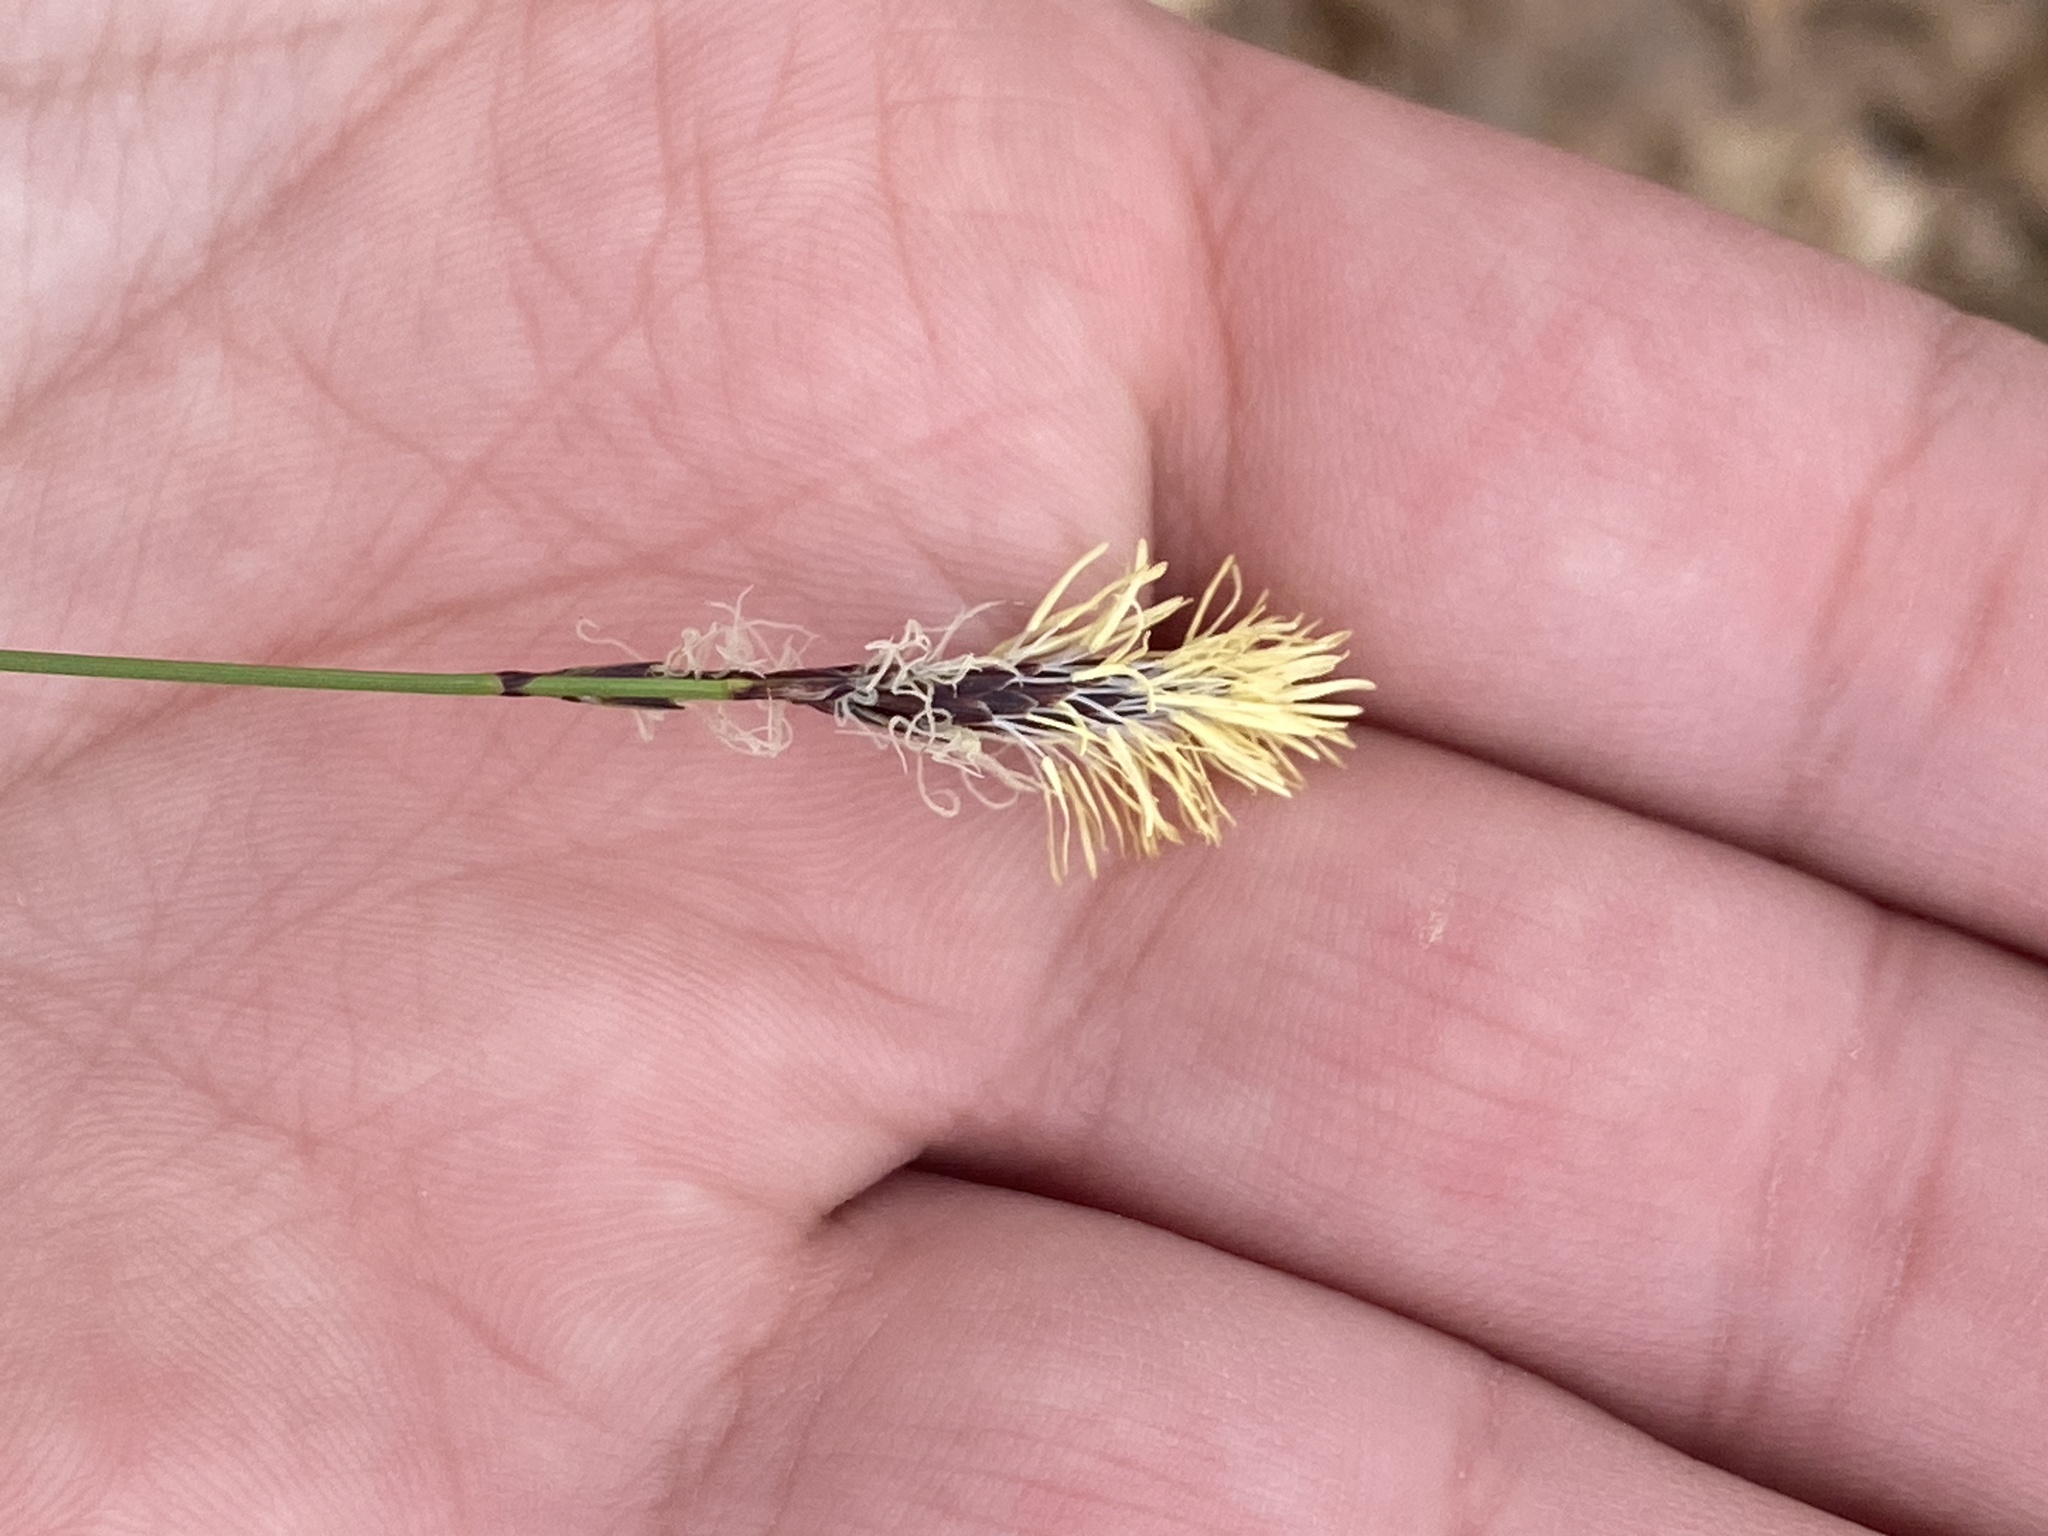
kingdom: Plantae
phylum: Tracheophyta
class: Liliopsida
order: Poales
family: Cyperaceae
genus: Carex
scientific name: Carex pensylvanica
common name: Common oak sedge
